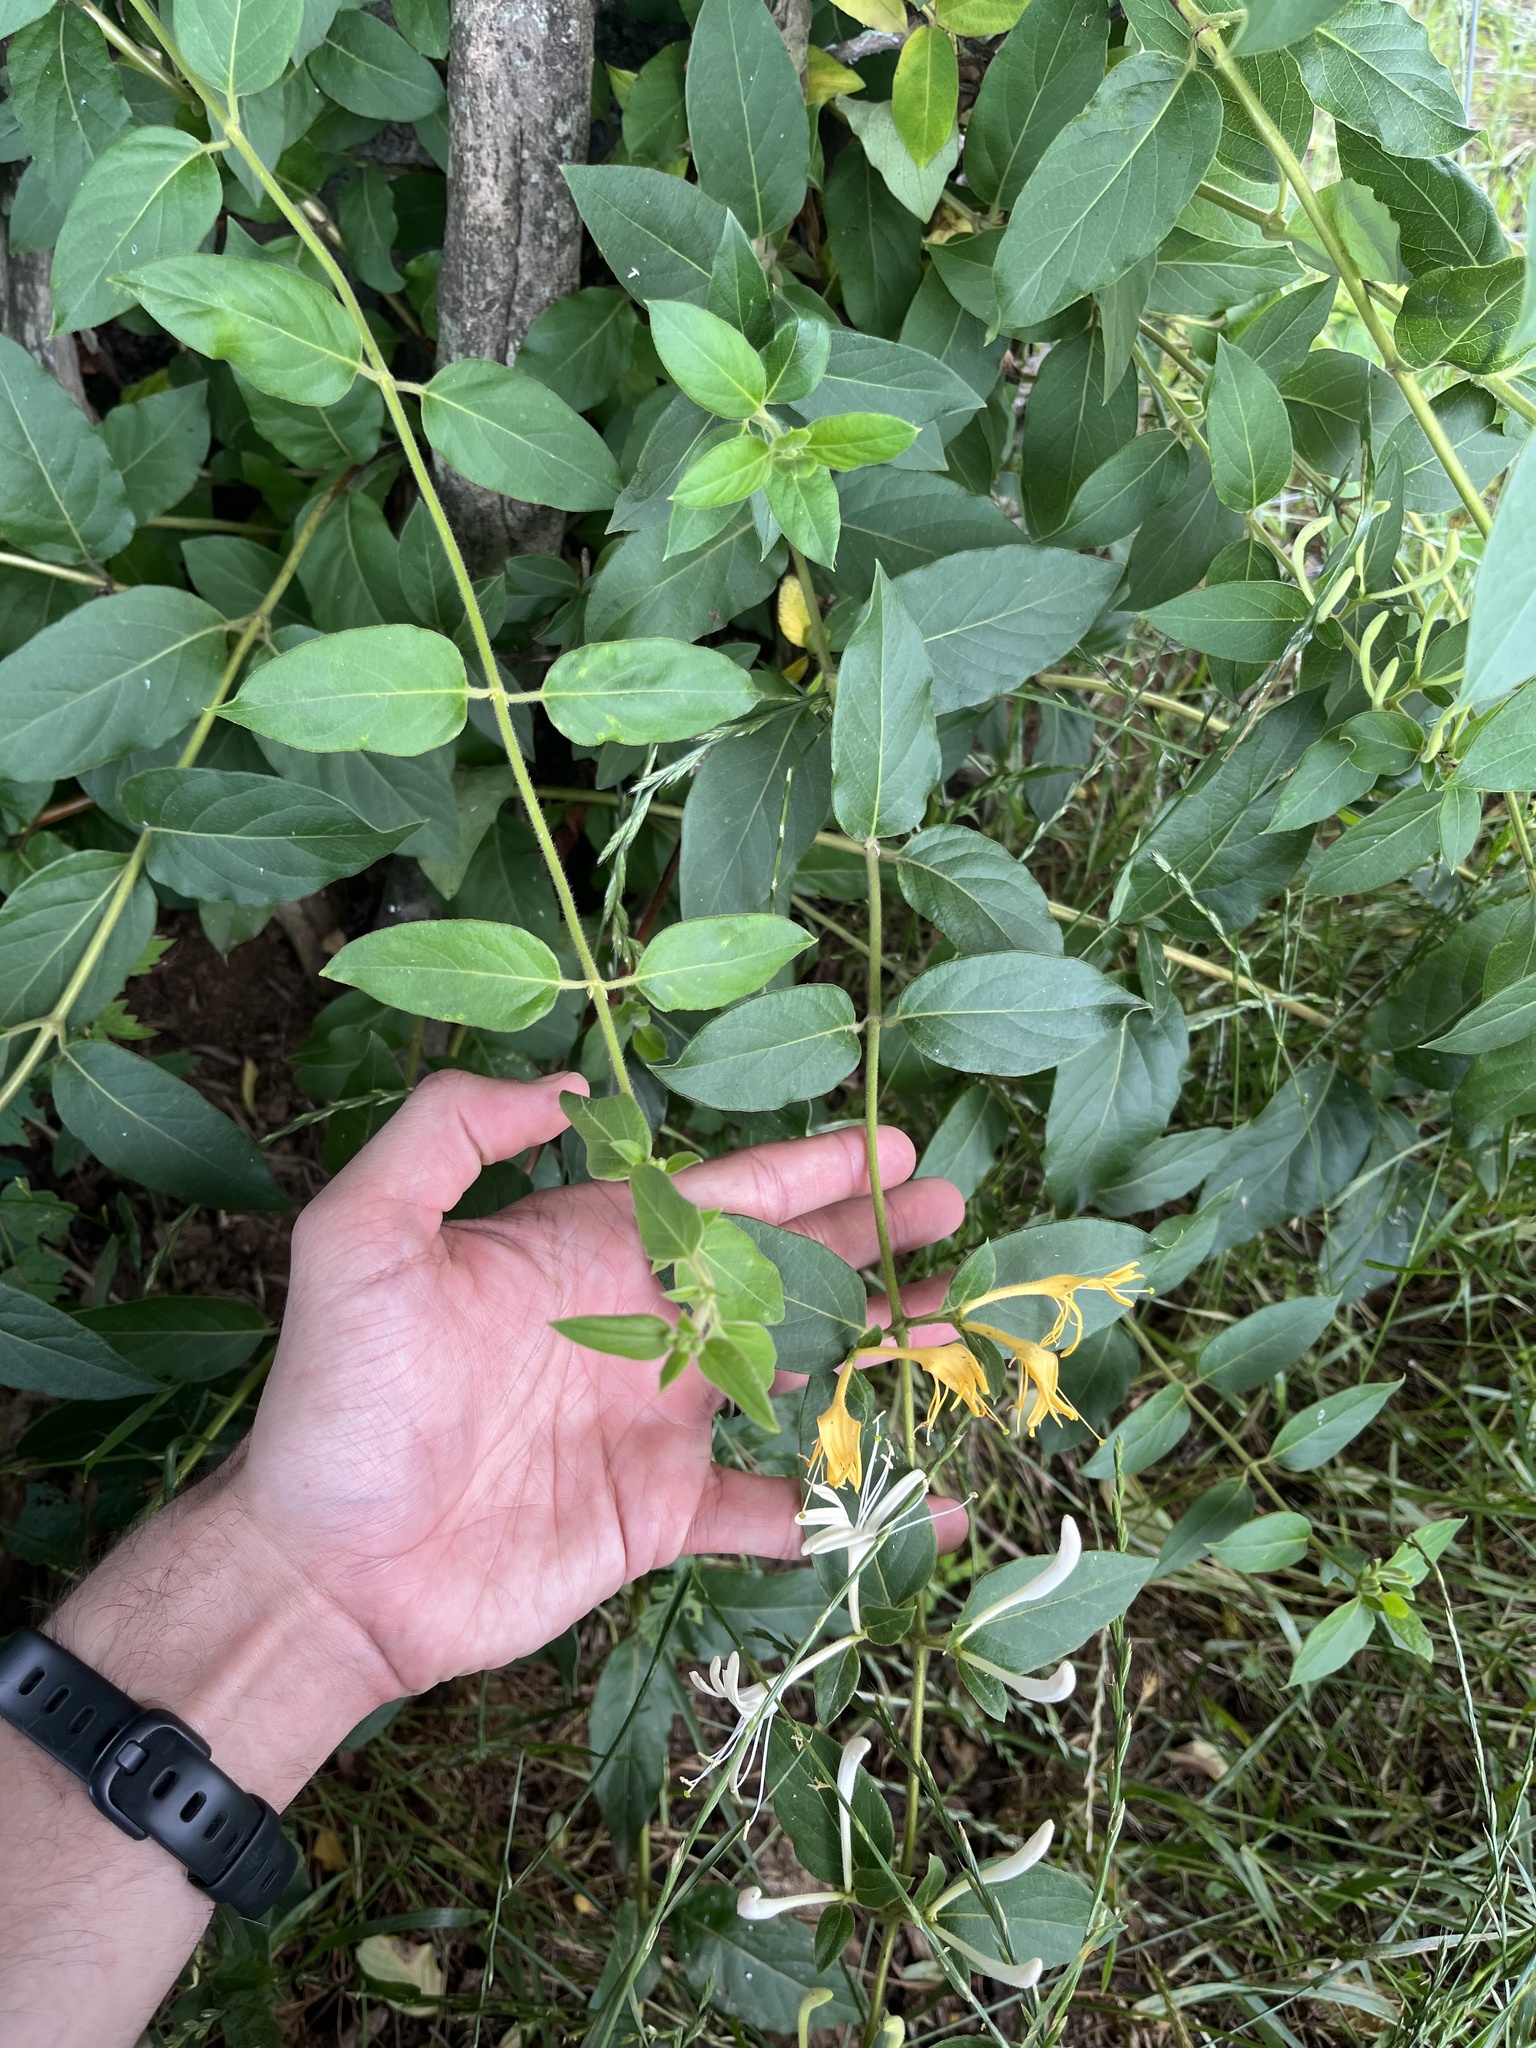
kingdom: Plantae
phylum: Tracheophyta
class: Magnoliopsida
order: Dipsacales
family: Caprifoliaceae
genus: Lonicera
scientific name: Lonicera japonica
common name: Japanese honeysuckle
